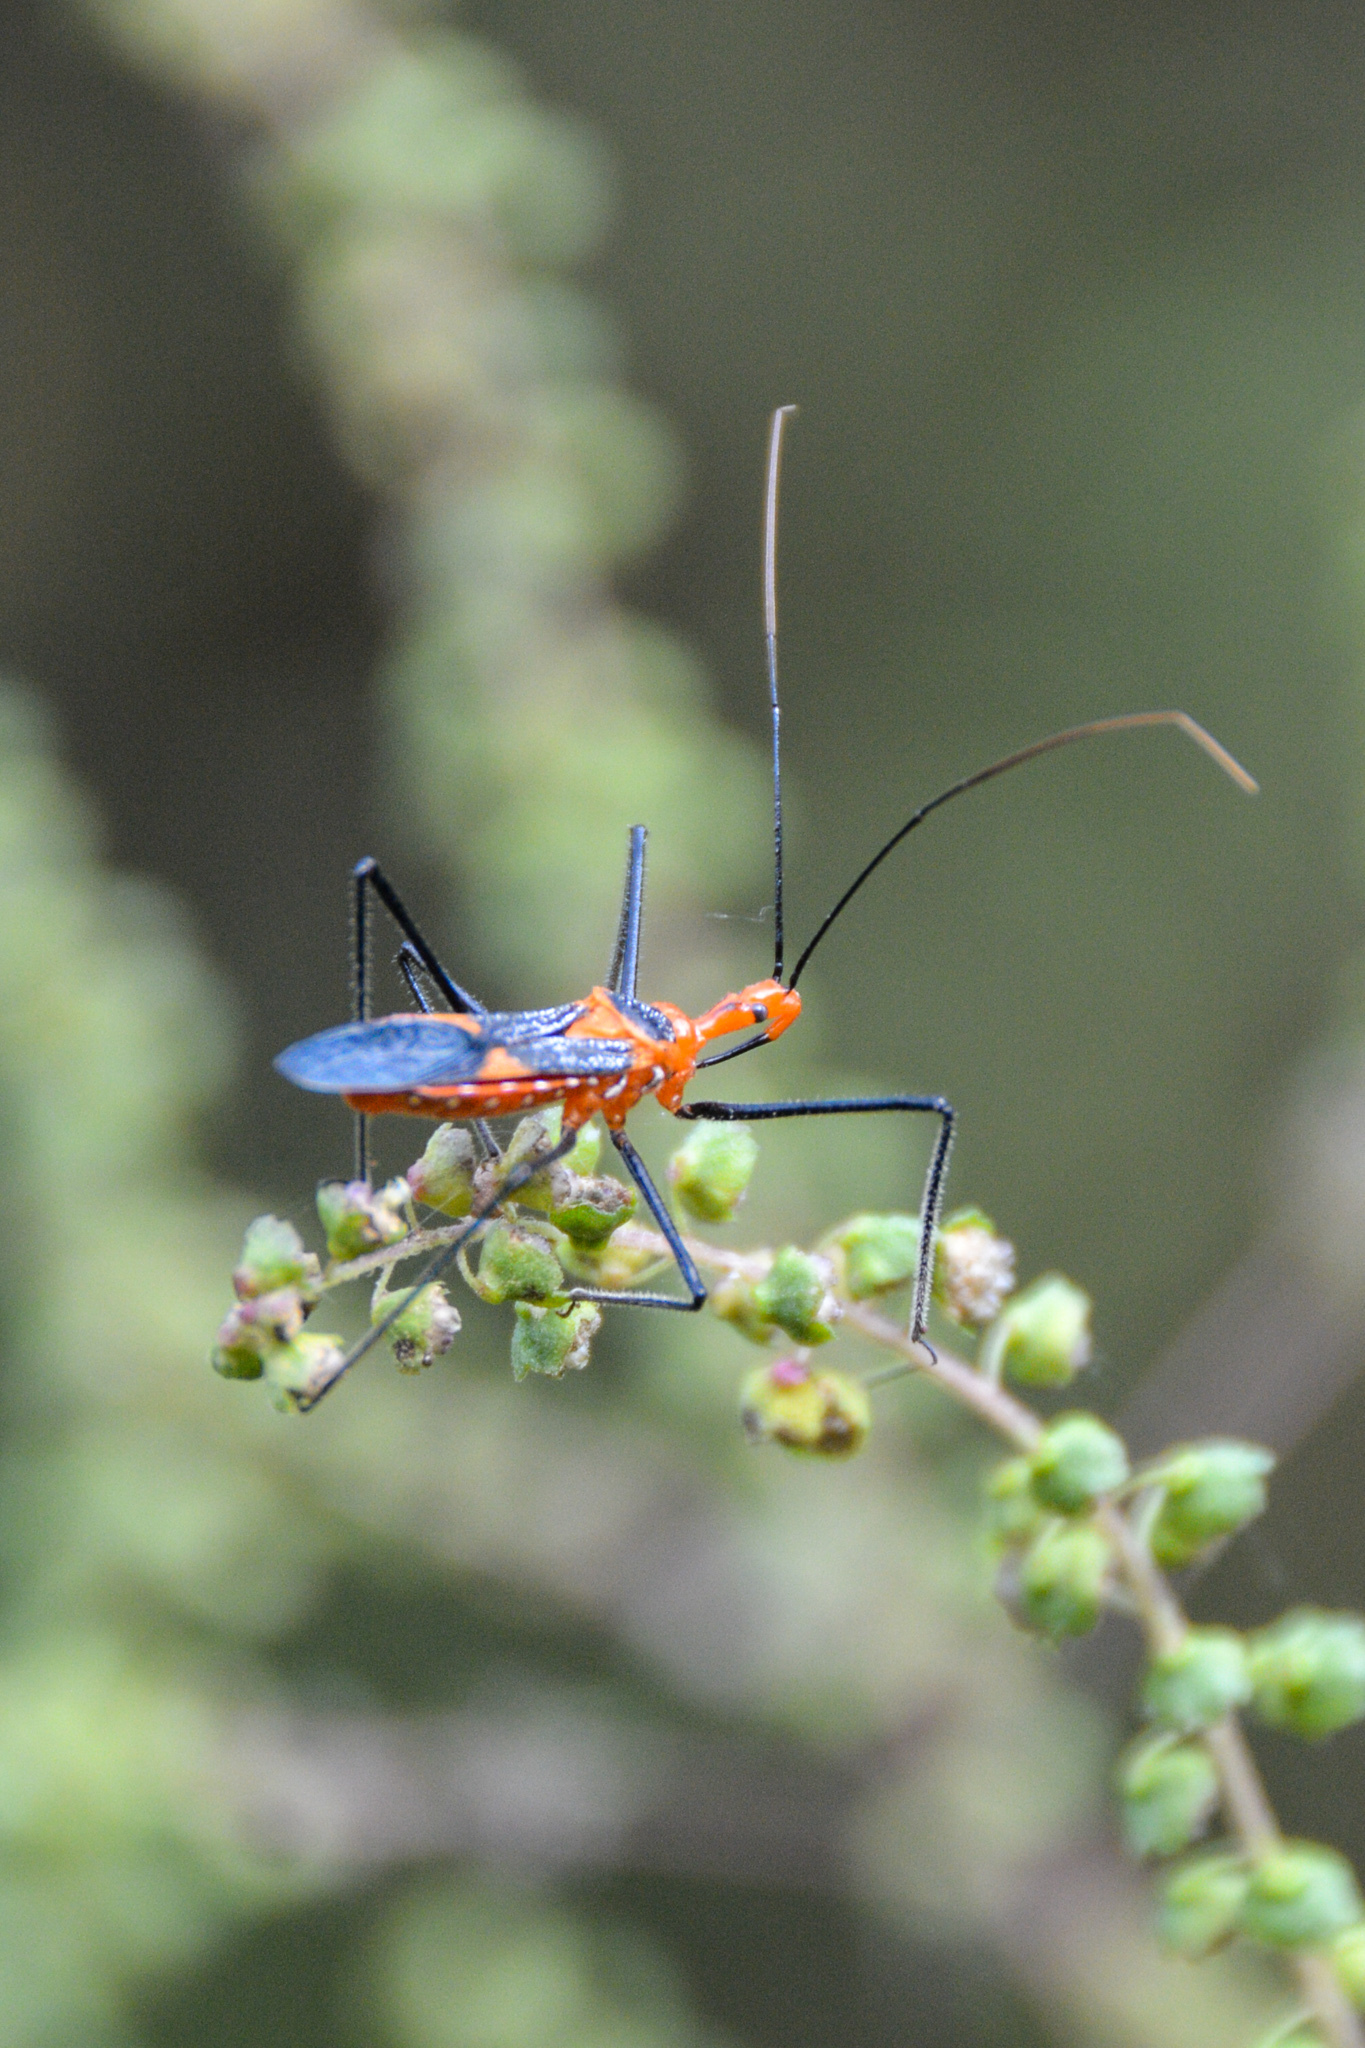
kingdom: Animalia
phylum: Arthropoda
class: Insecta
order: Hemiptera
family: Reduviidae
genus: Zelus
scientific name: Zelus longipes
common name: Milkweed assassin bug
